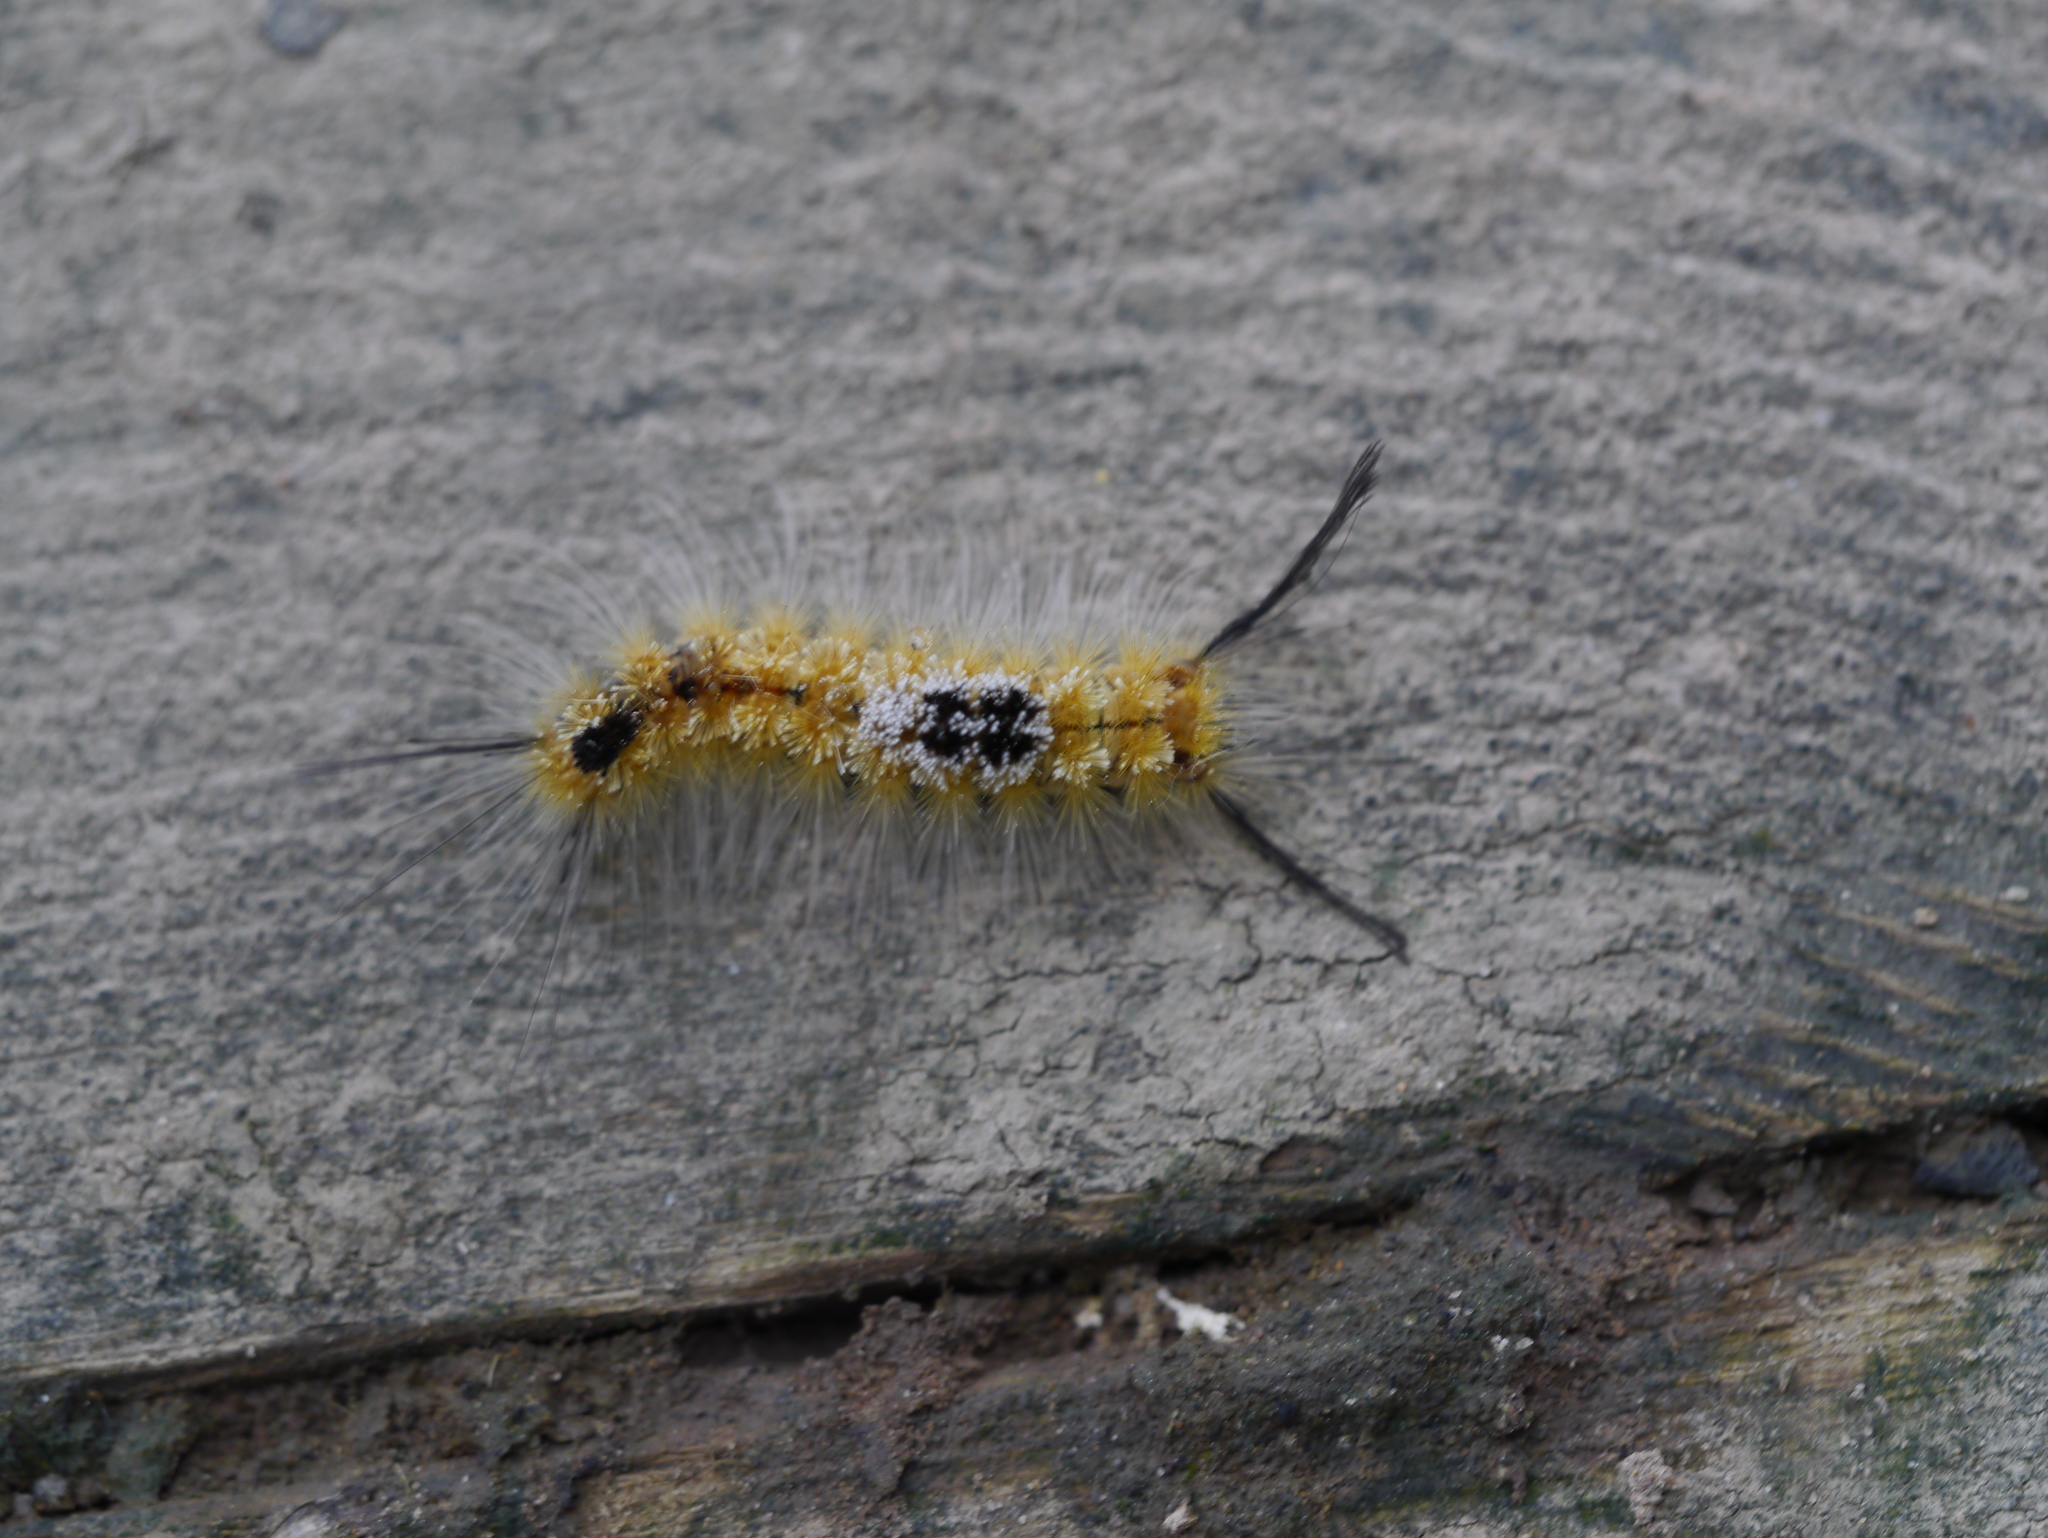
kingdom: Animalia
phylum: Arthropoda
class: Insecta
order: Lepidoptera
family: Erebidae
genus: Dasychira
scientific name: Dasychira basiflava
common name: Yellow-based tussock moth
